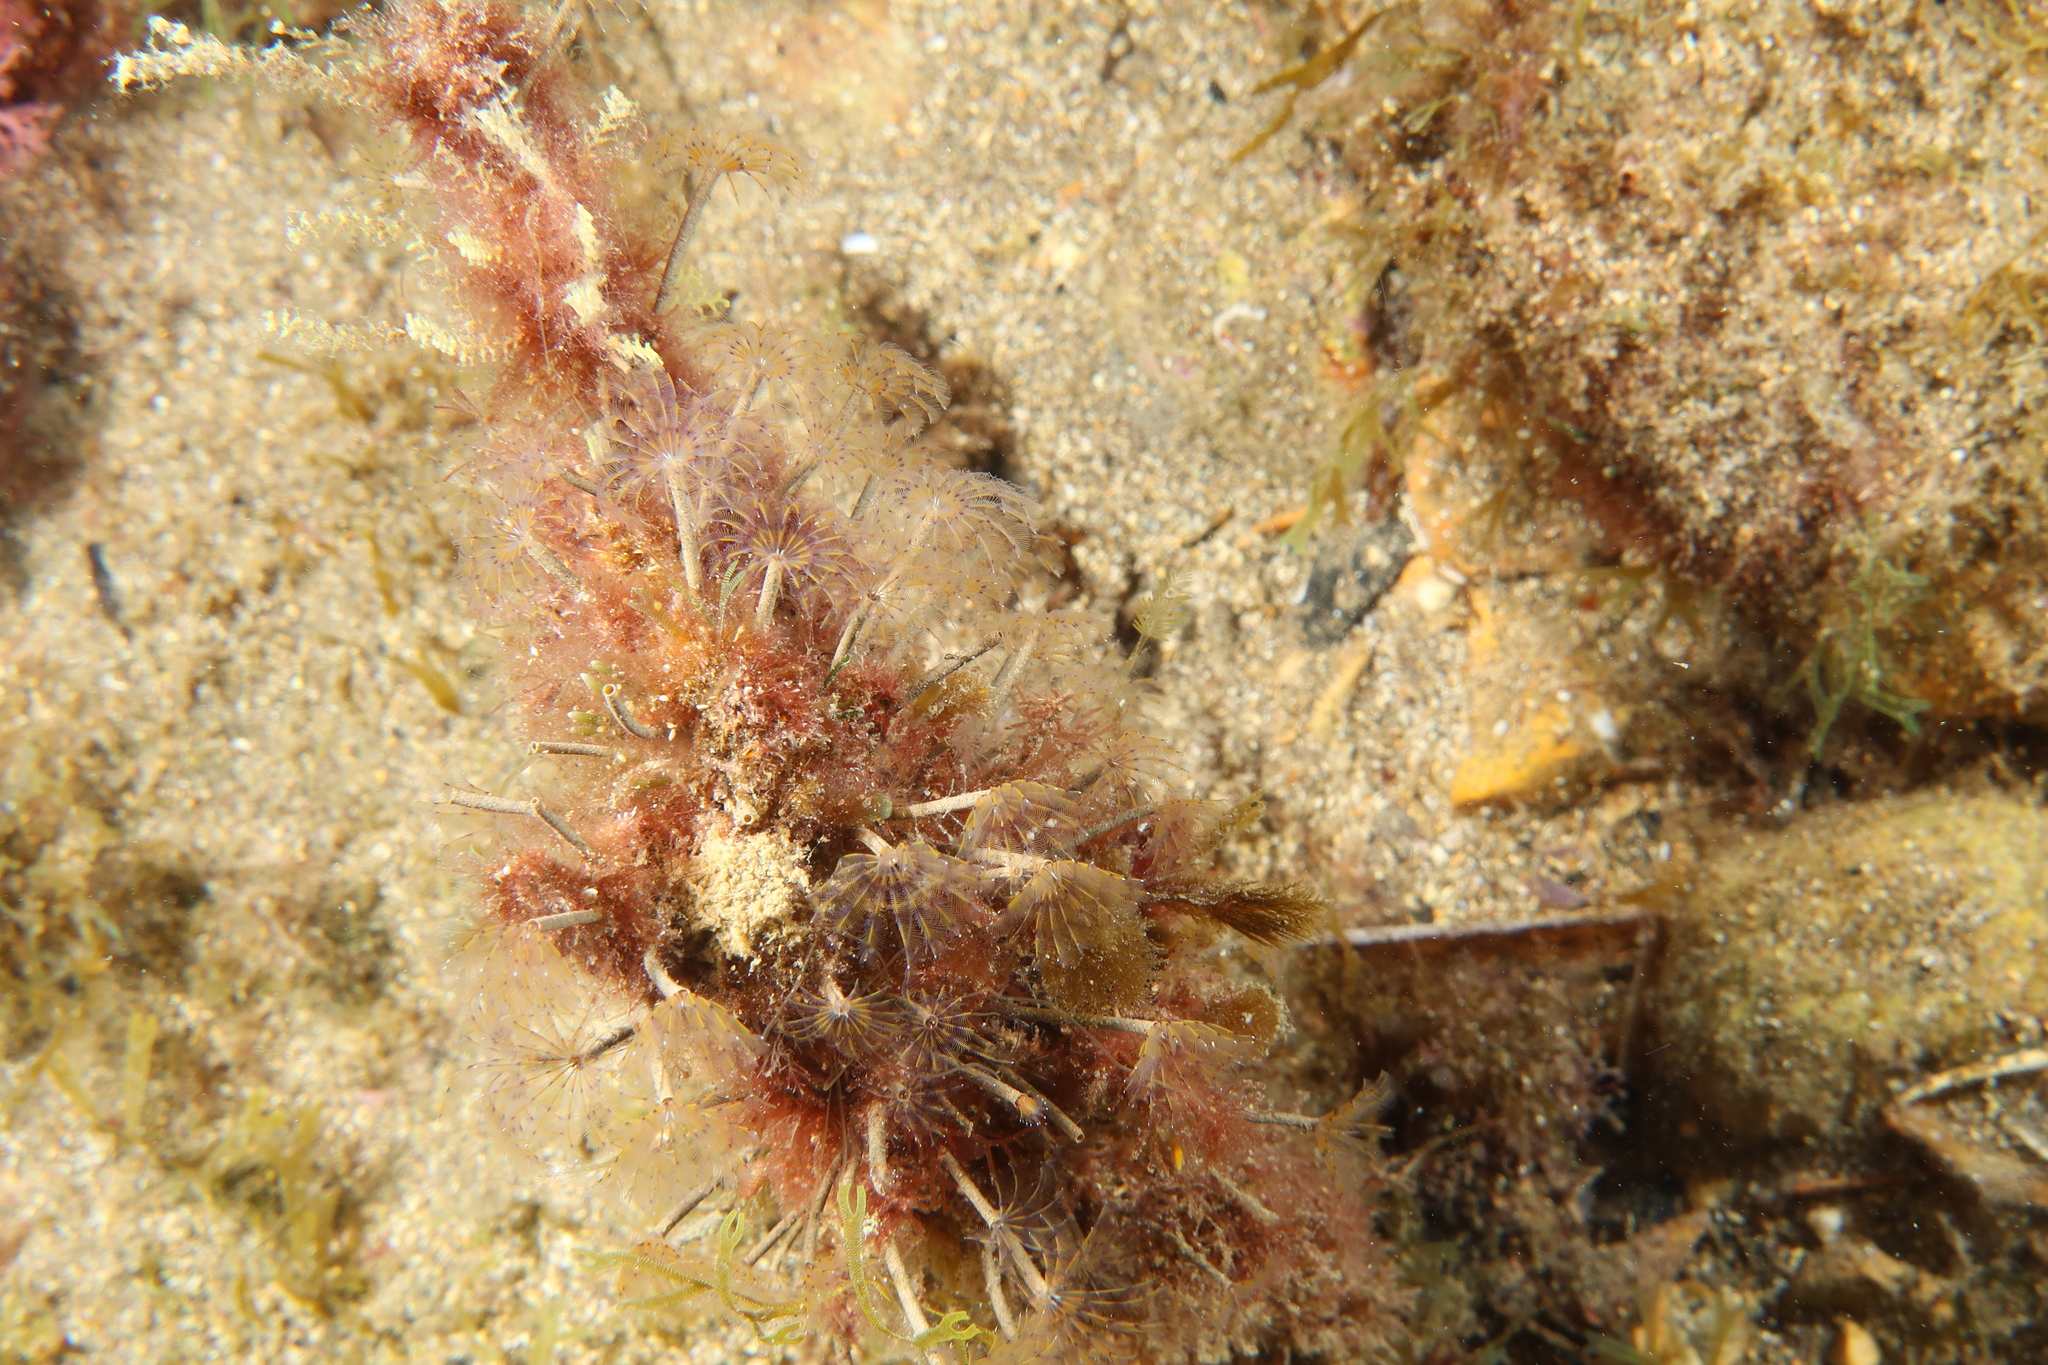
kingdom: Animalia
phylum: Annelida
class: Polychaeta
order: Sabellida
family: Sabellidae
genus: Sabella
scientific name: Sabella discifera
